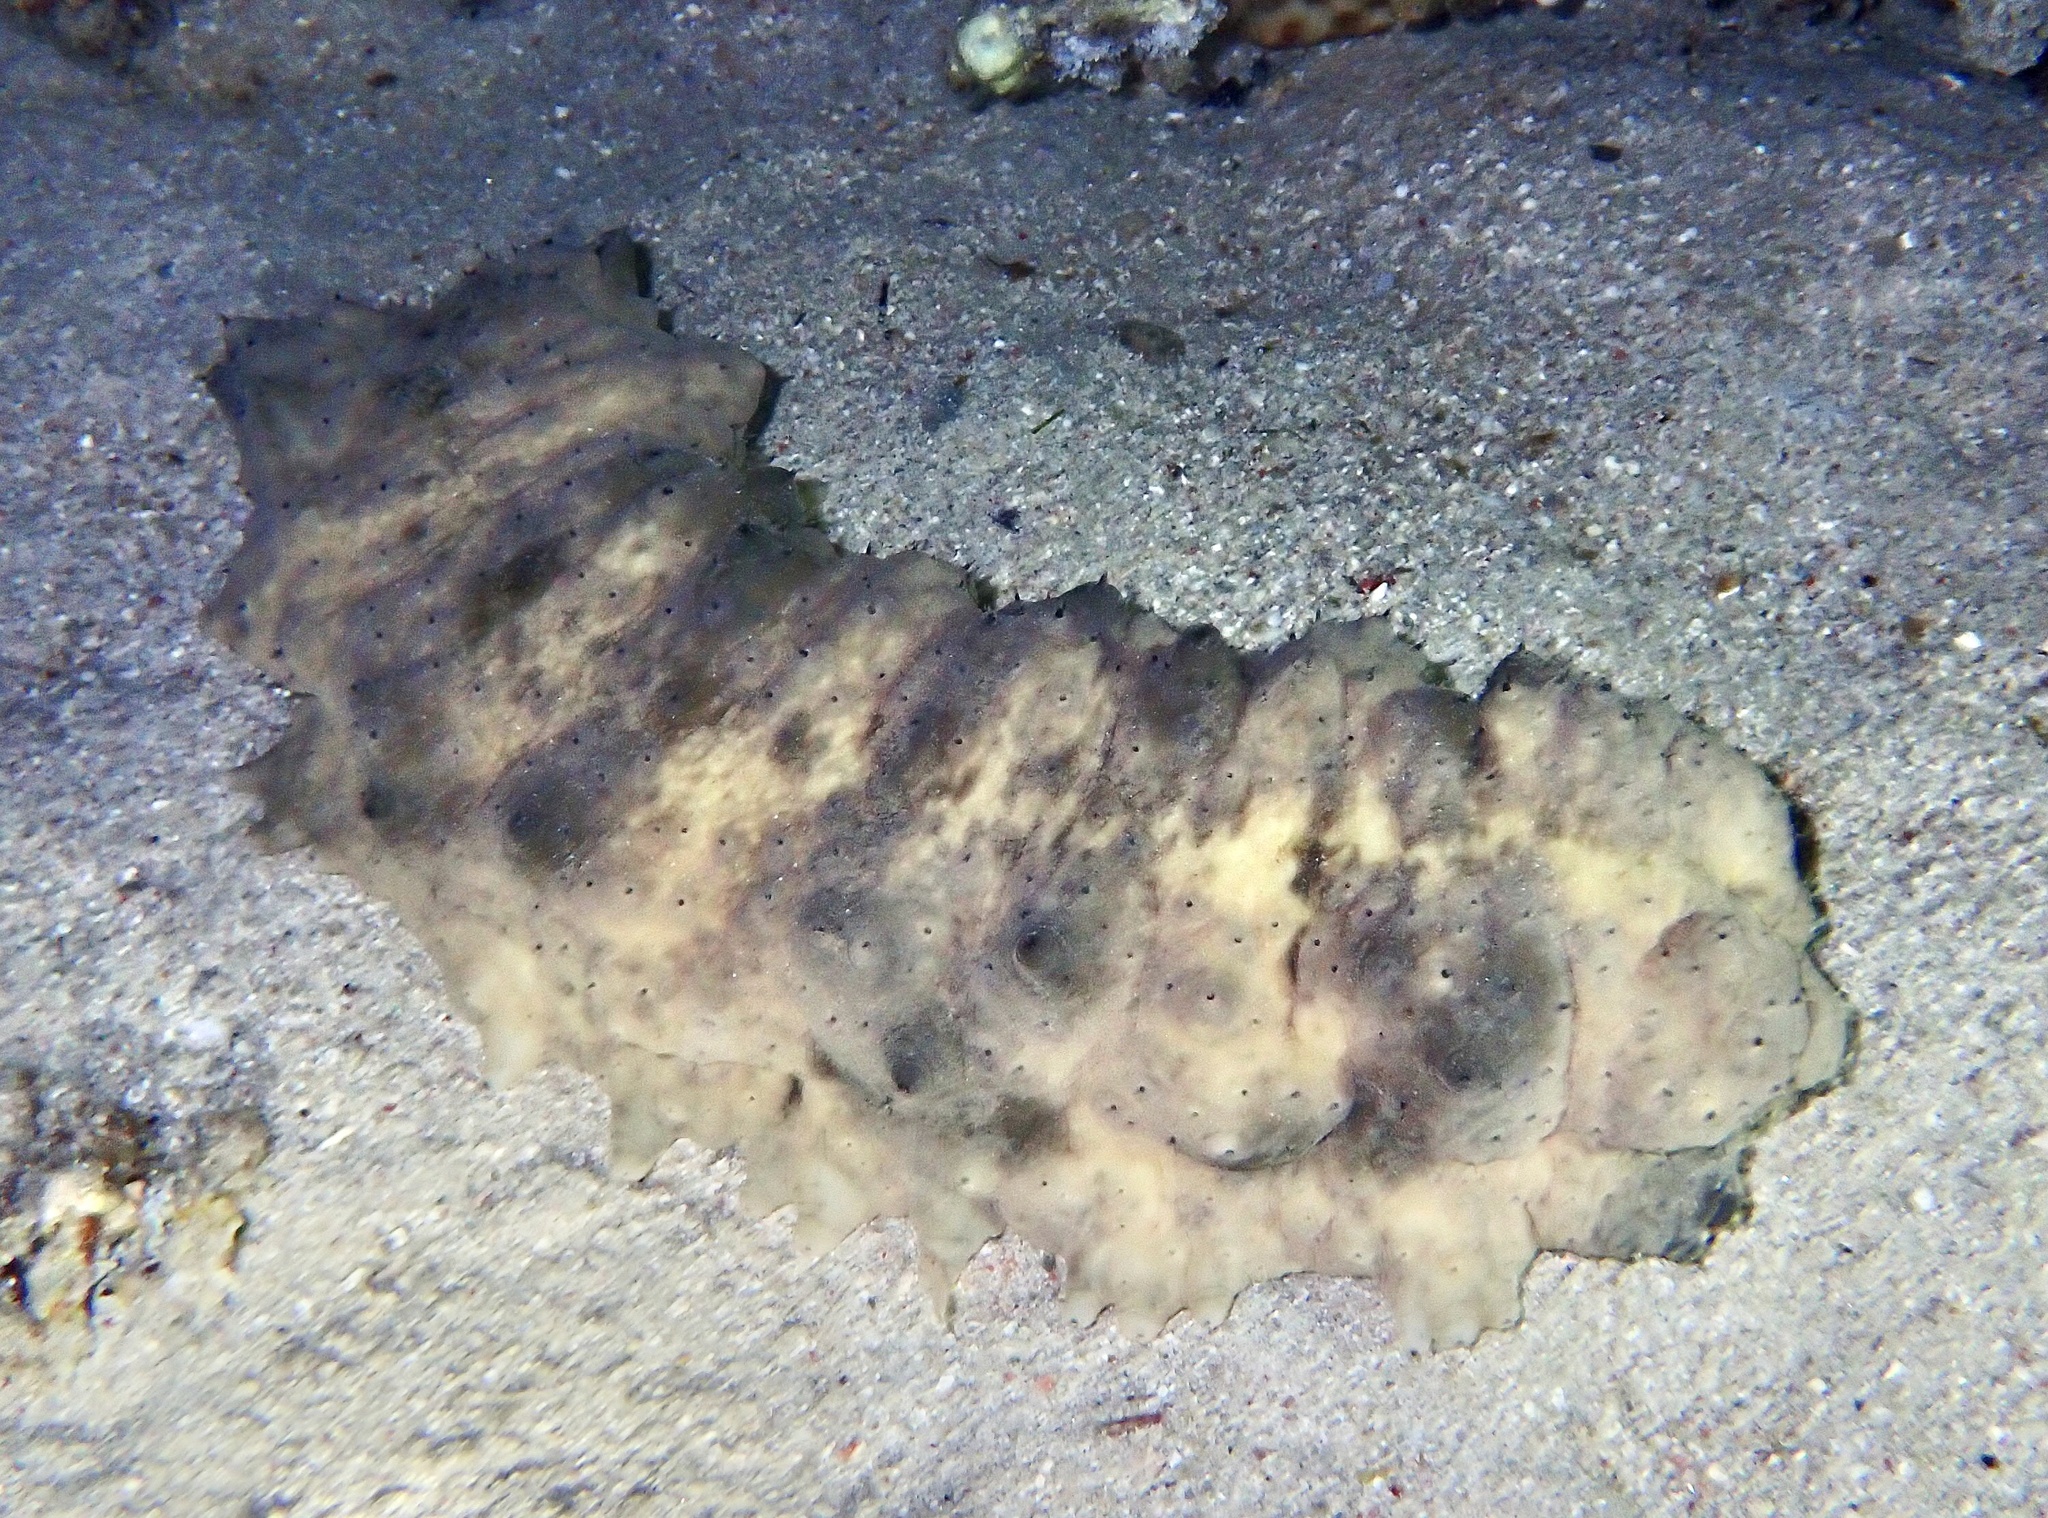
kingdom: Animalia
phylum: Echinodermata
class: Holothuroidea
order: Synallactida
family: Stichopodidae
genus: Stichopus
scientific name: Stichopus horrens
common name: Dragonfish
